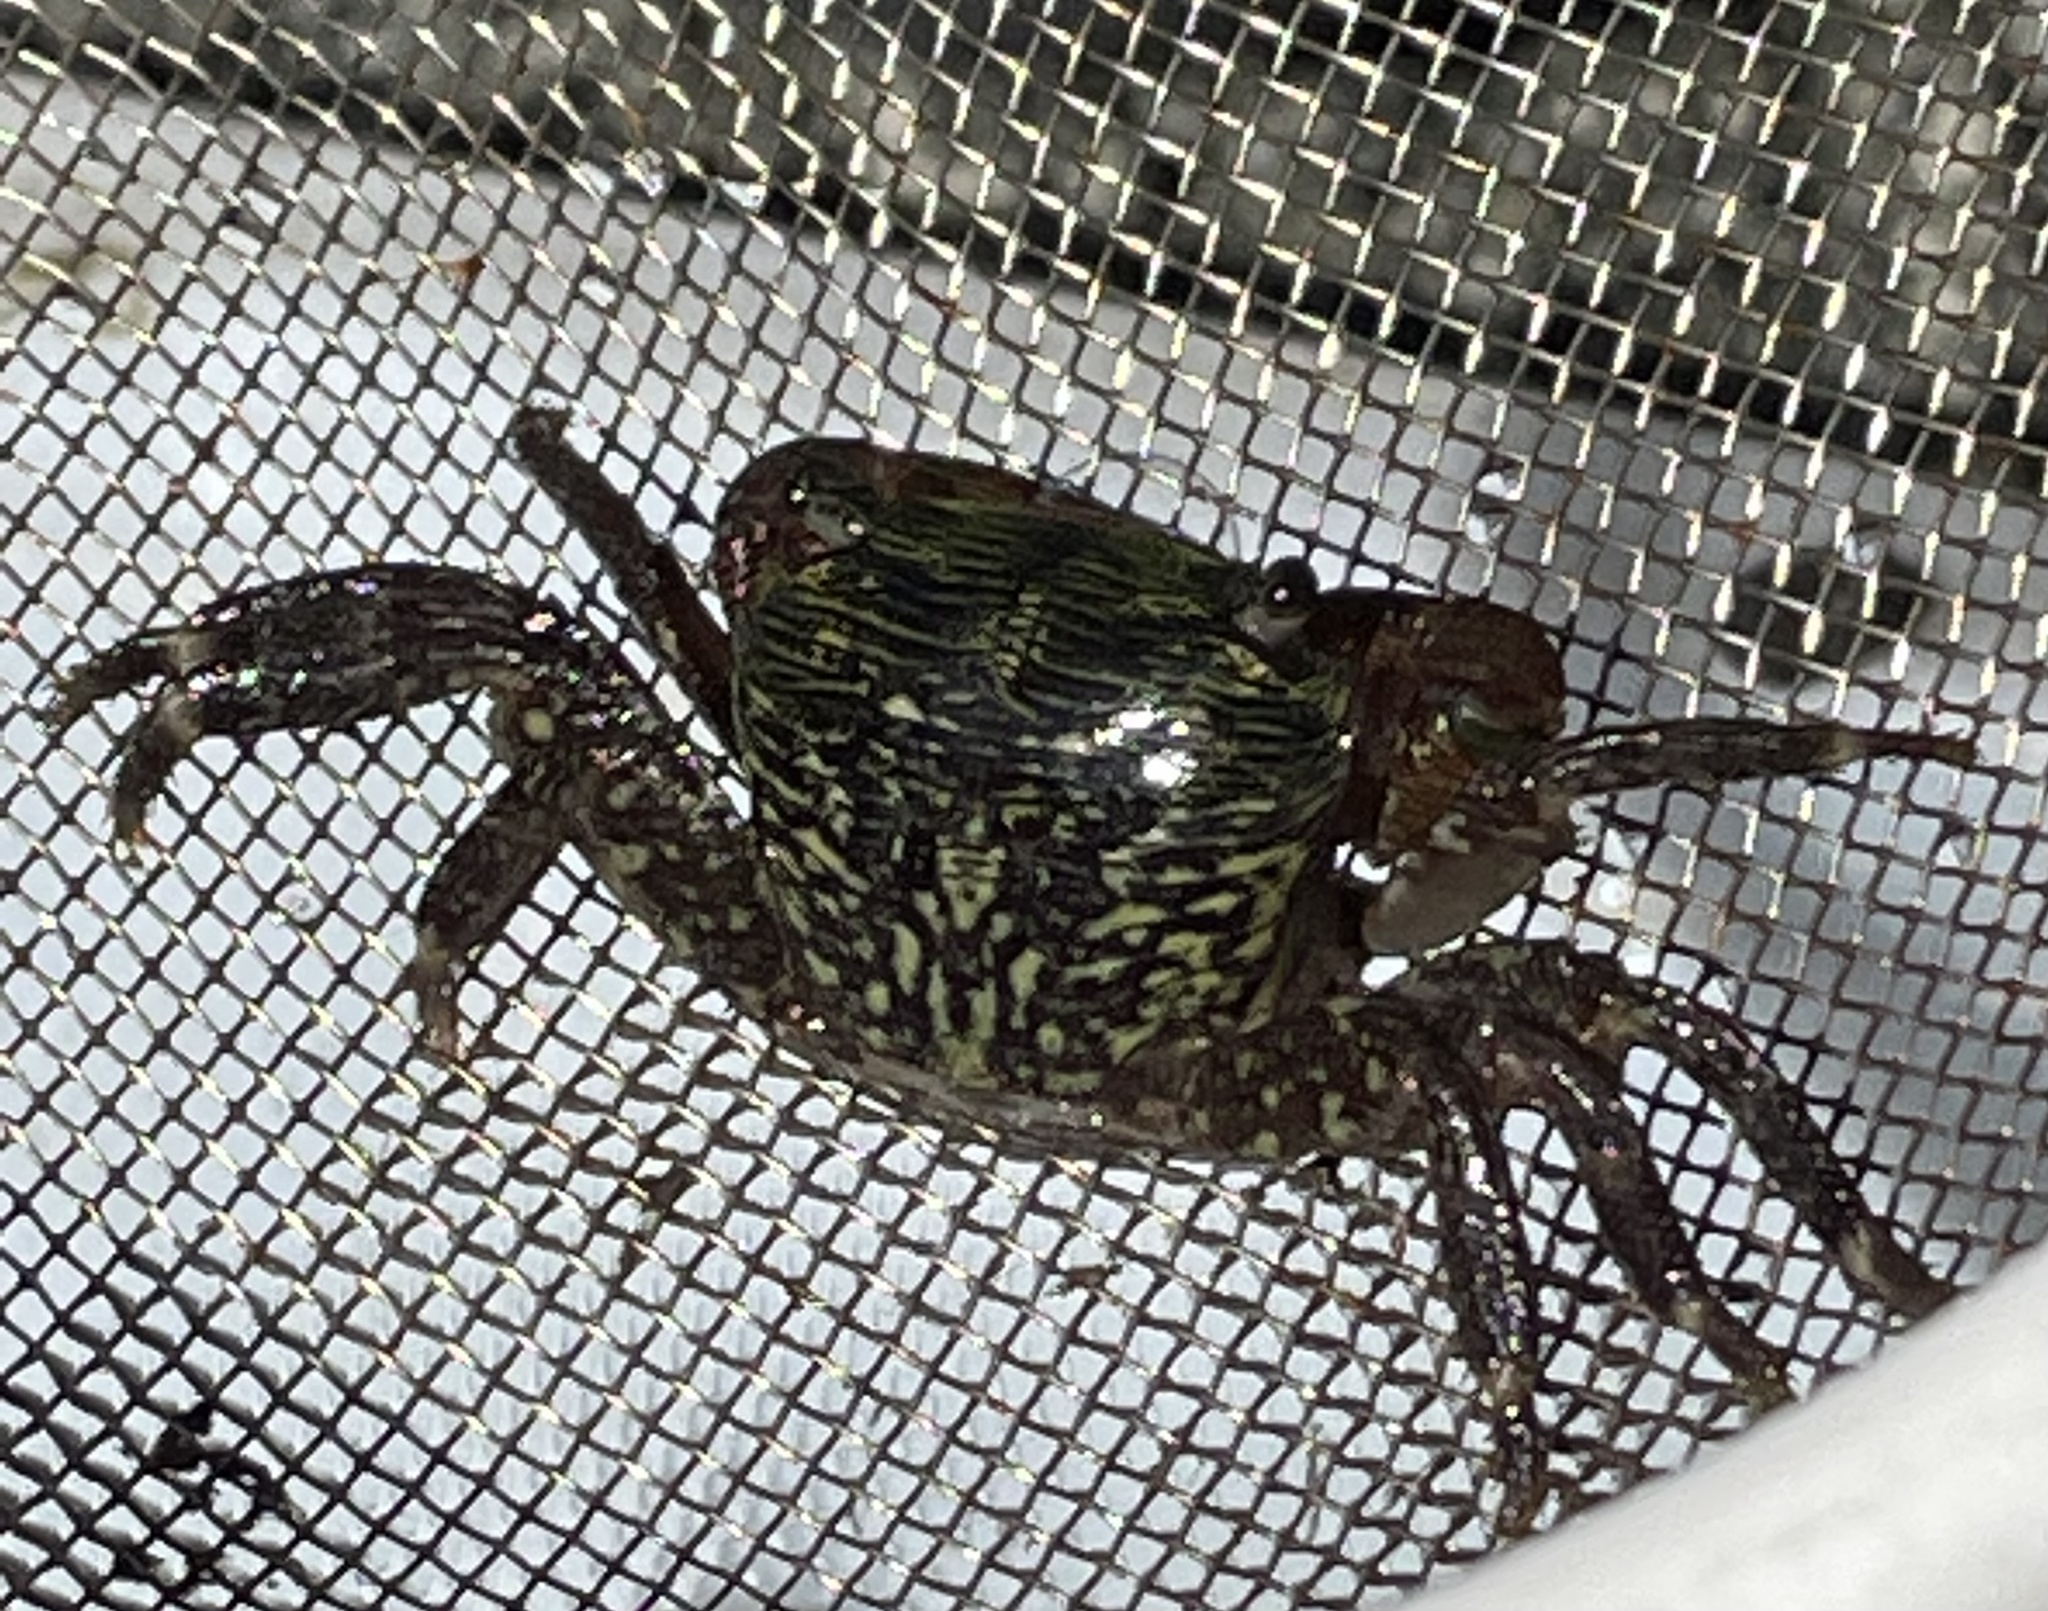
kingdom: Animalia
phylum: Arthropoda
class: Malacostraca
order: Decapoda
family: Grapsidae
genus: Pachygrapsus
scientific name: Pachygrapsus crassipes
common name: Striped shore crab
